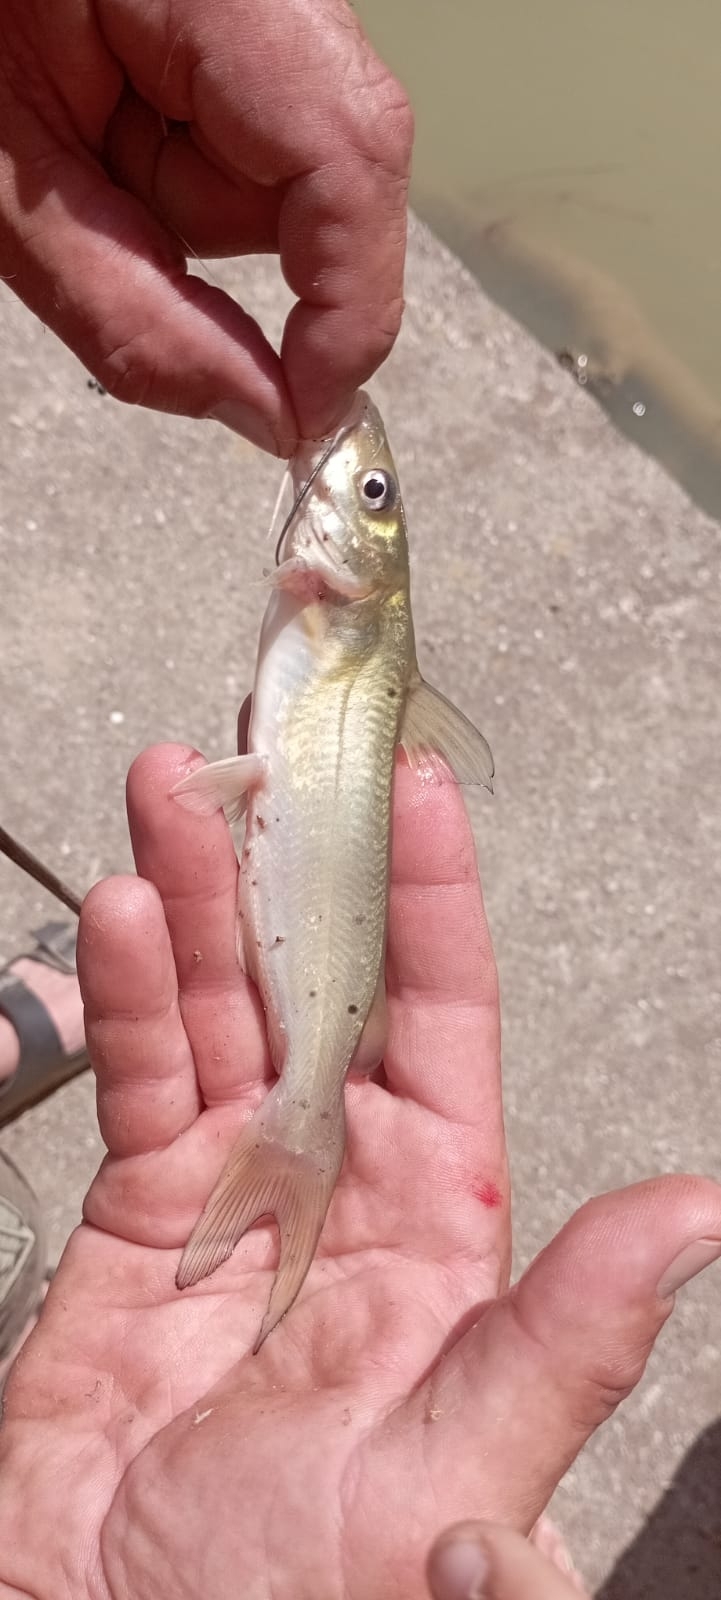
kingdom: Animalia
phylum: Chordata
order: Siluriformes
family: Ictaluridae
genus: Ictalurus
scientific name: Ictalurus punctatus
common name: Channel catfish
